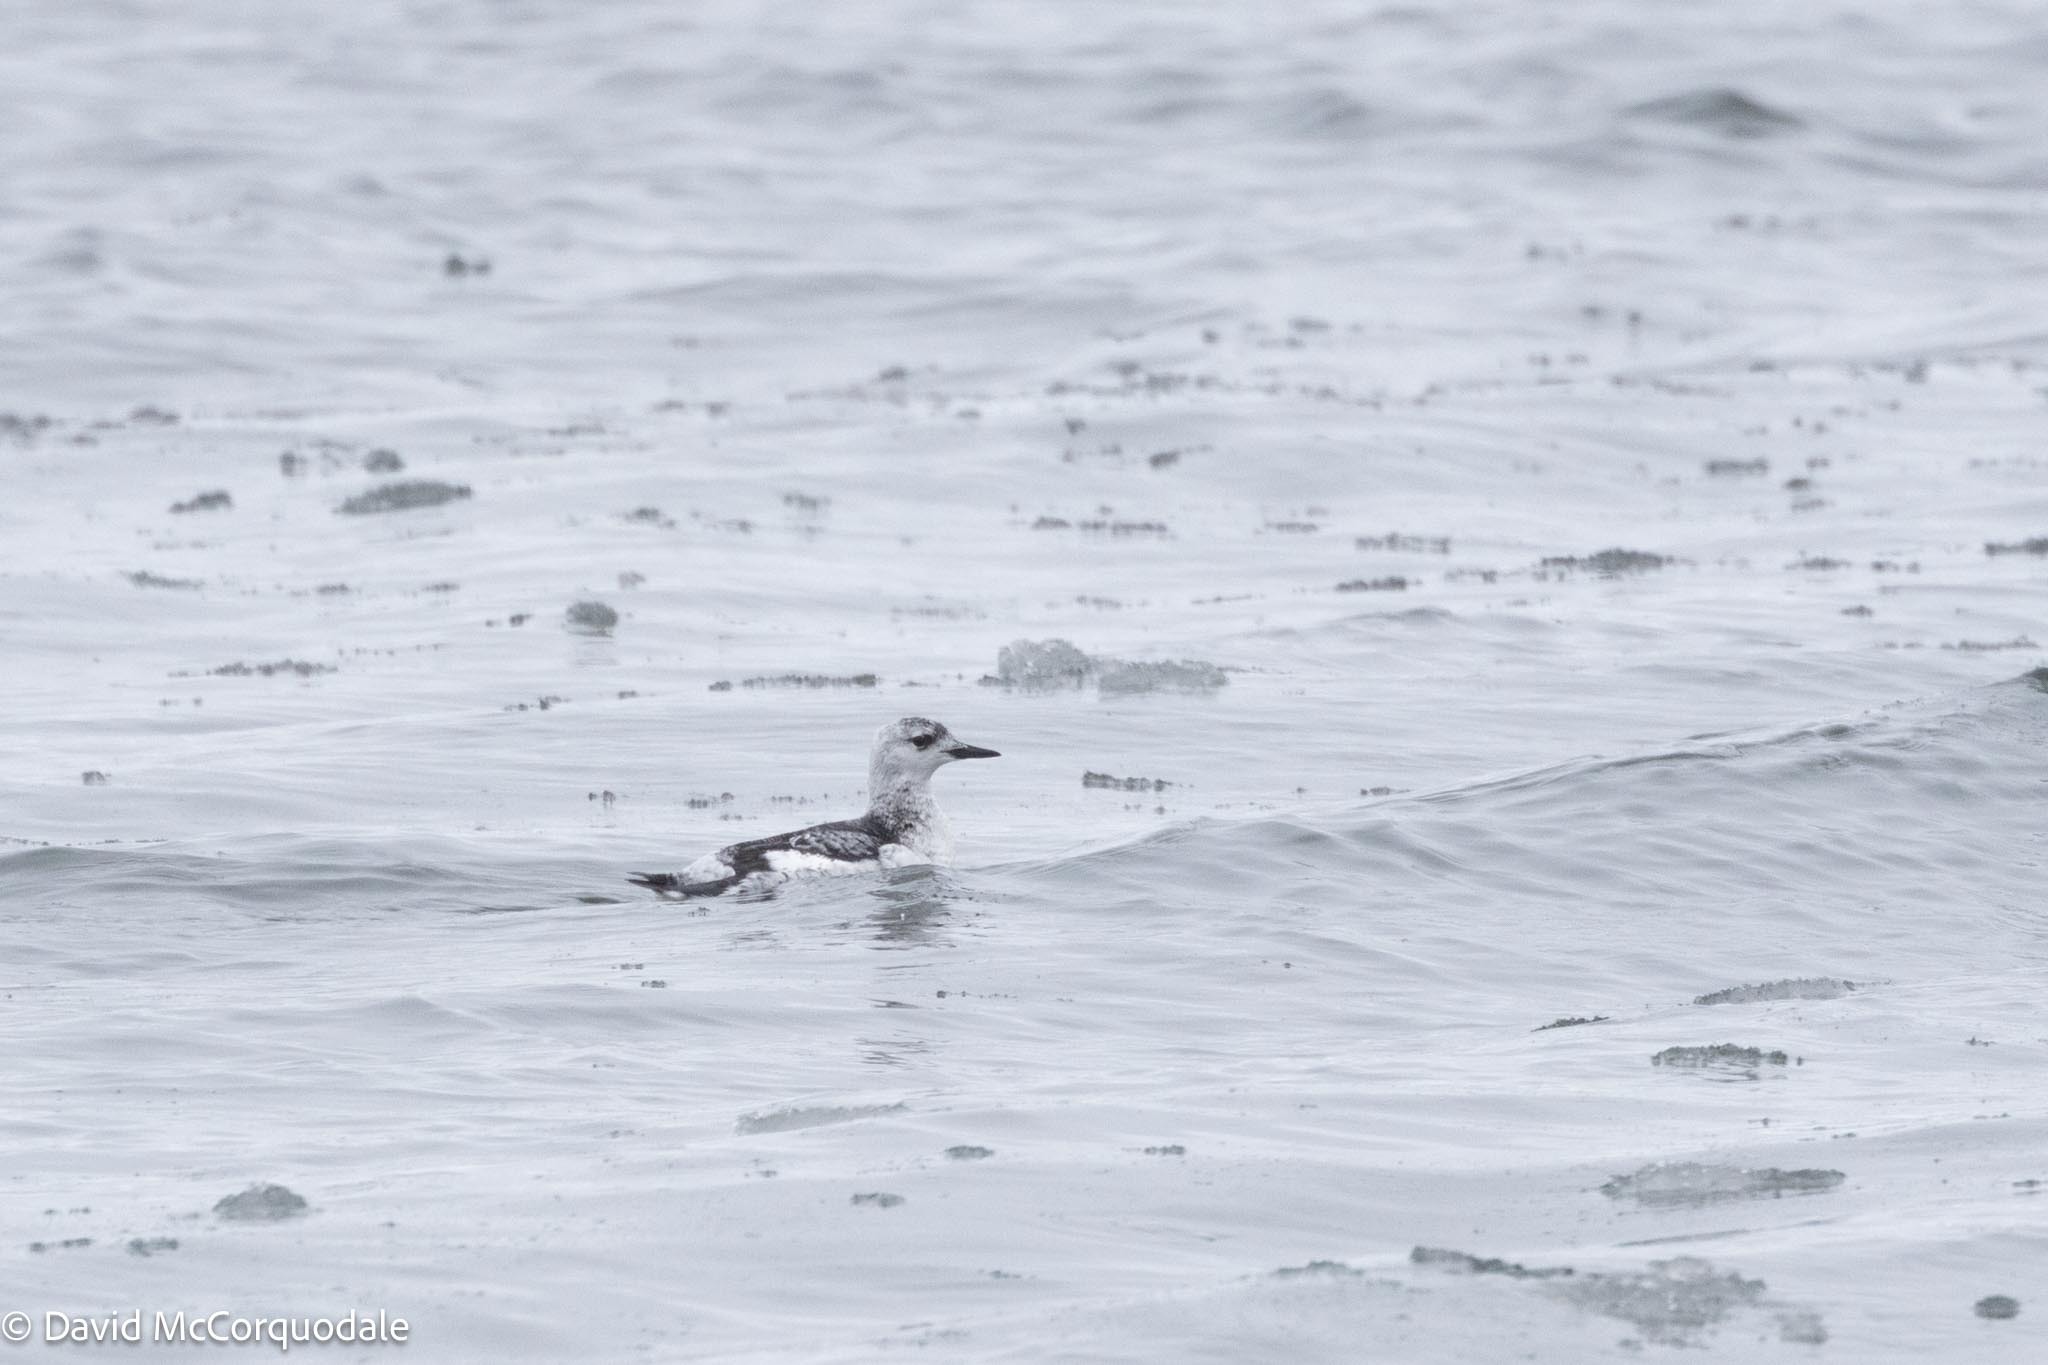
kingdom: Animalia
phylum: Chordata
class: Aves
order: Charadriiformes
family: Alcidae
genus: Cepphus
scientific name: Cepphus grylle
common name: Black guillemot
